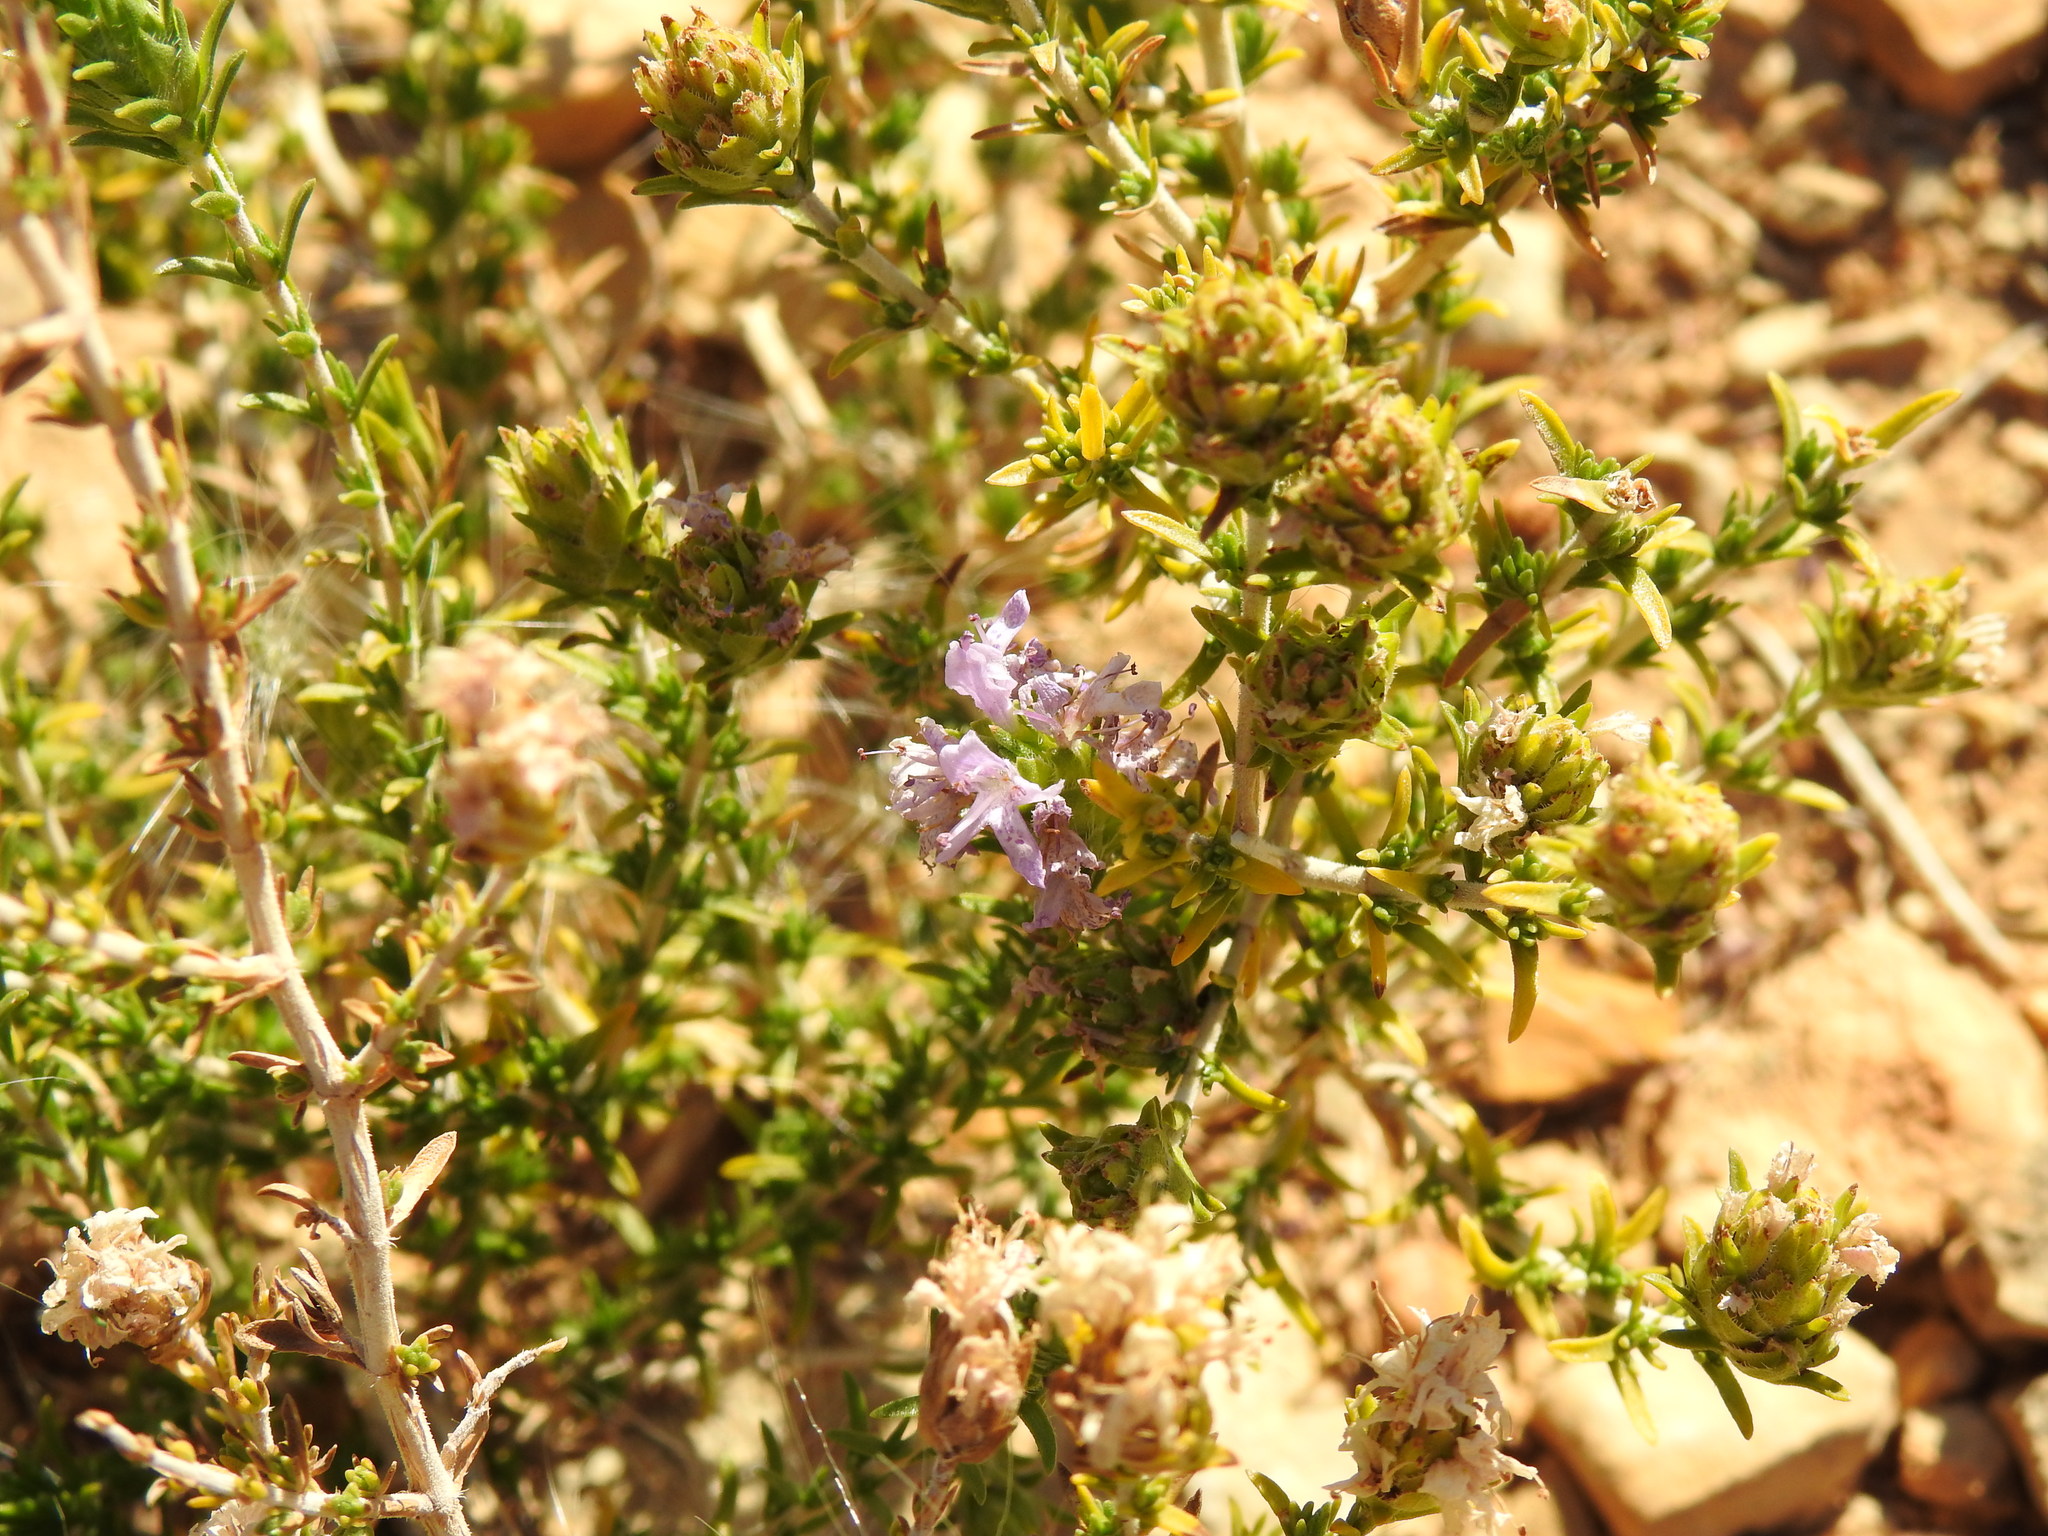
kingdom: Plantae
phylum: Tracheophyta
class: Magnoliopsida
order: Lamiales
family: Lamiaceae
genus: Thymbra
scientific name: Thymbra capitata
